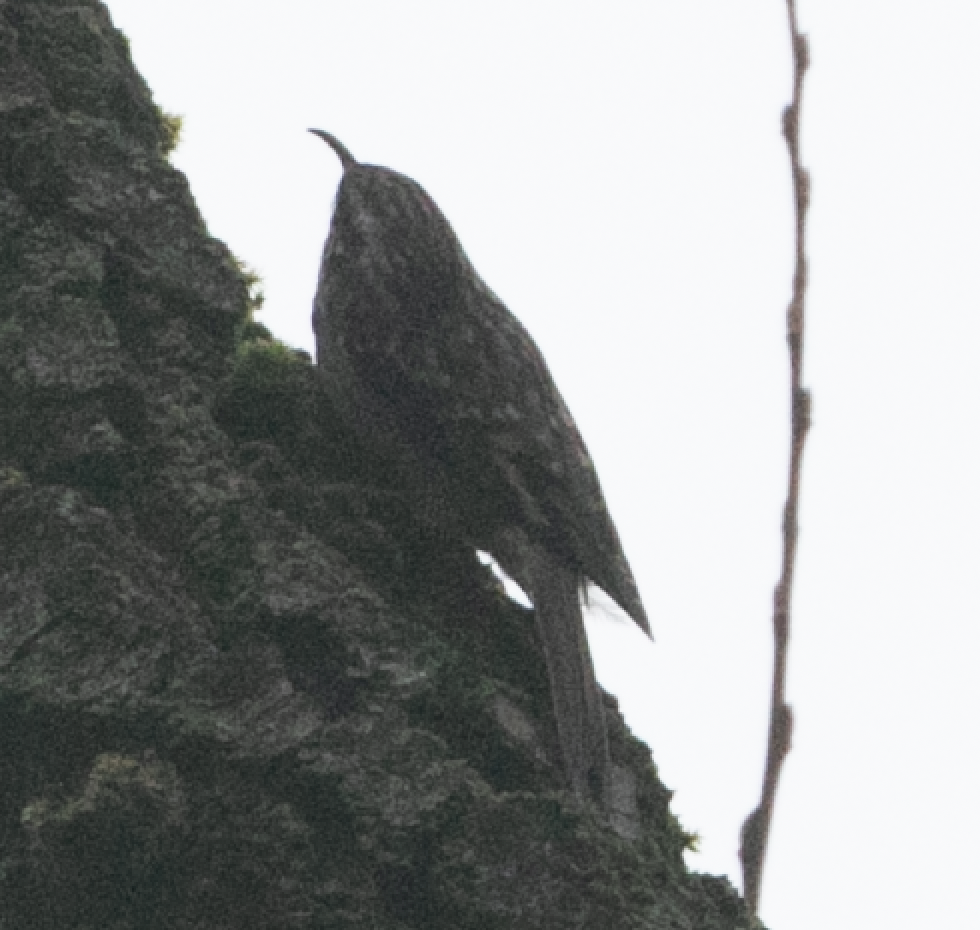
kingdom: Animalia
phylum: Chordata
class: Aves
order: Passeriformes
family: Certhiidae
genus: Certhia
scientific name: Certhia brachydactyla
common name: Short-toed treecreeper
